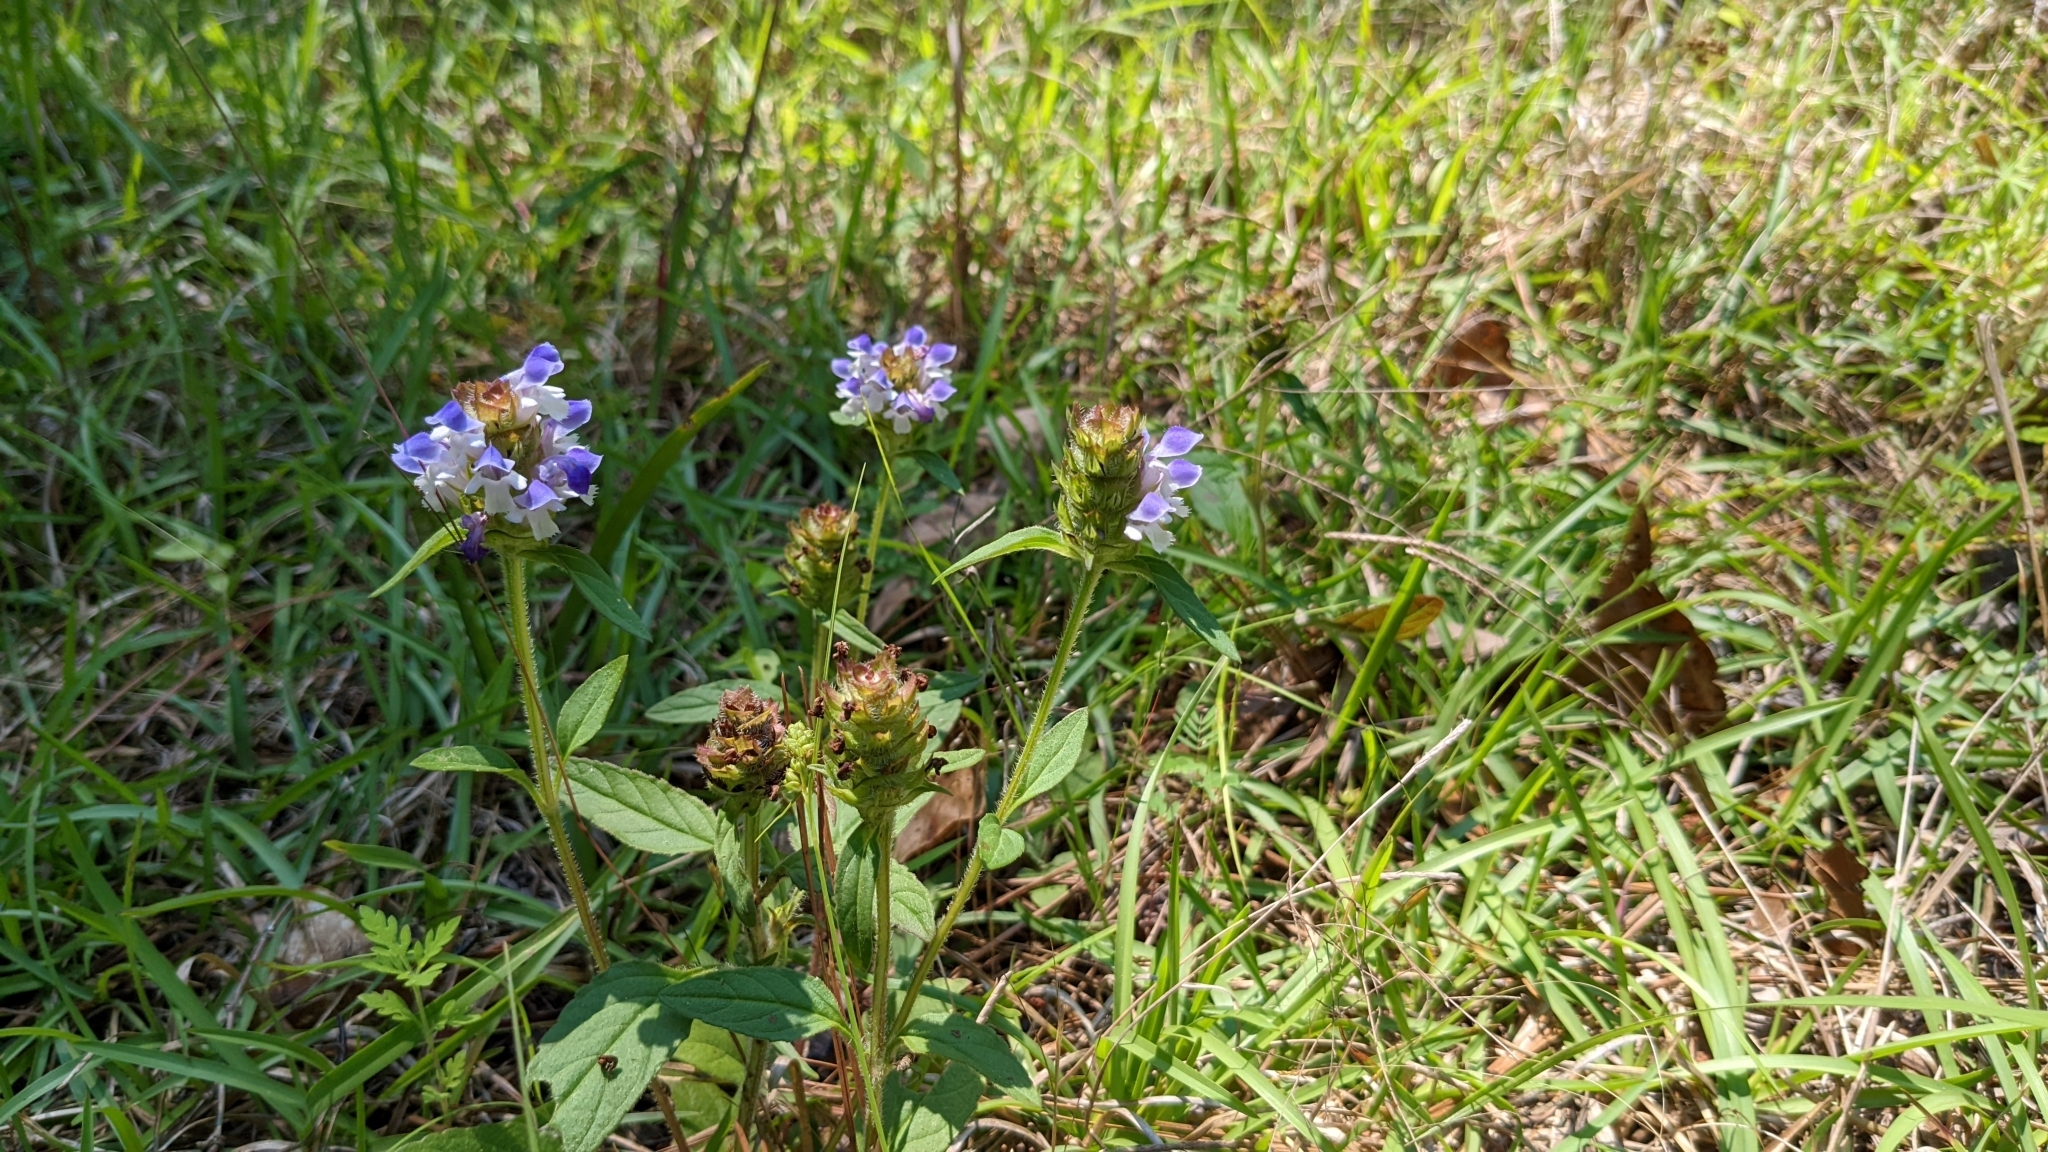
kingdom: Plantae
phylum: Tracheophyta
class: Magnoliopsida
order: Lamiales
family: Lamiaceae
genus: Prunella
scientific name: Prunella vulgaris
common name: Heal-all
